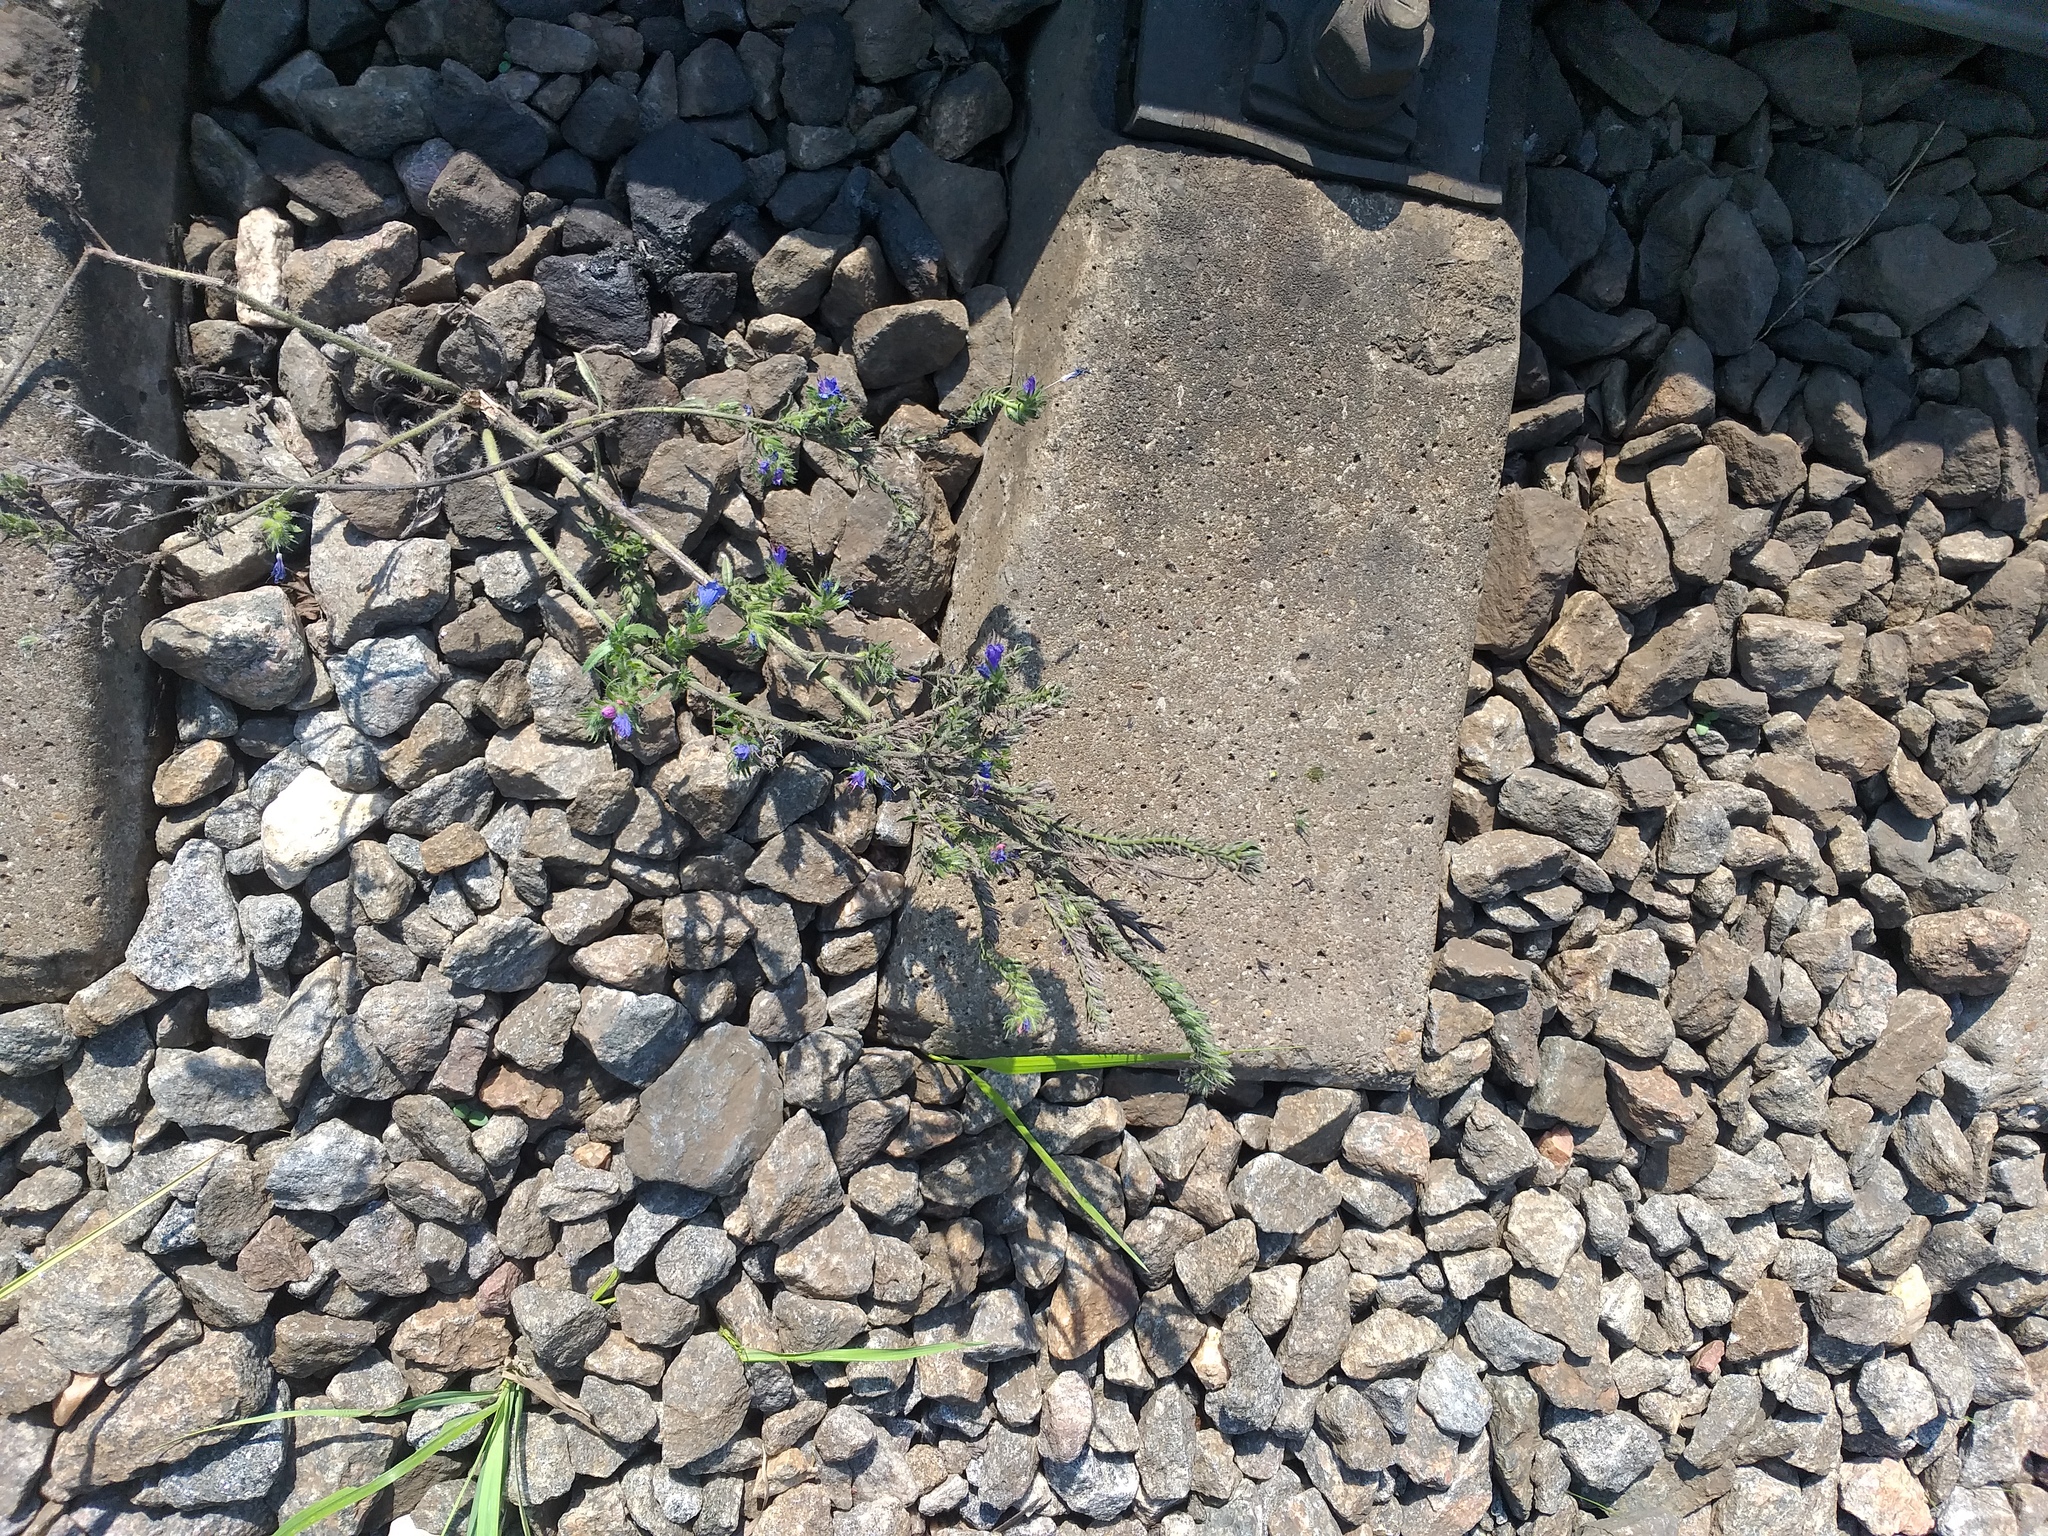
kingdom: Plantae
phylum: Tracheophyta
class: Magnoliopsida
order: Boraginales
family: Boraginaceae
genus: Echium
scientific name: Echium vulgare
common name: Common viper's bugloss
